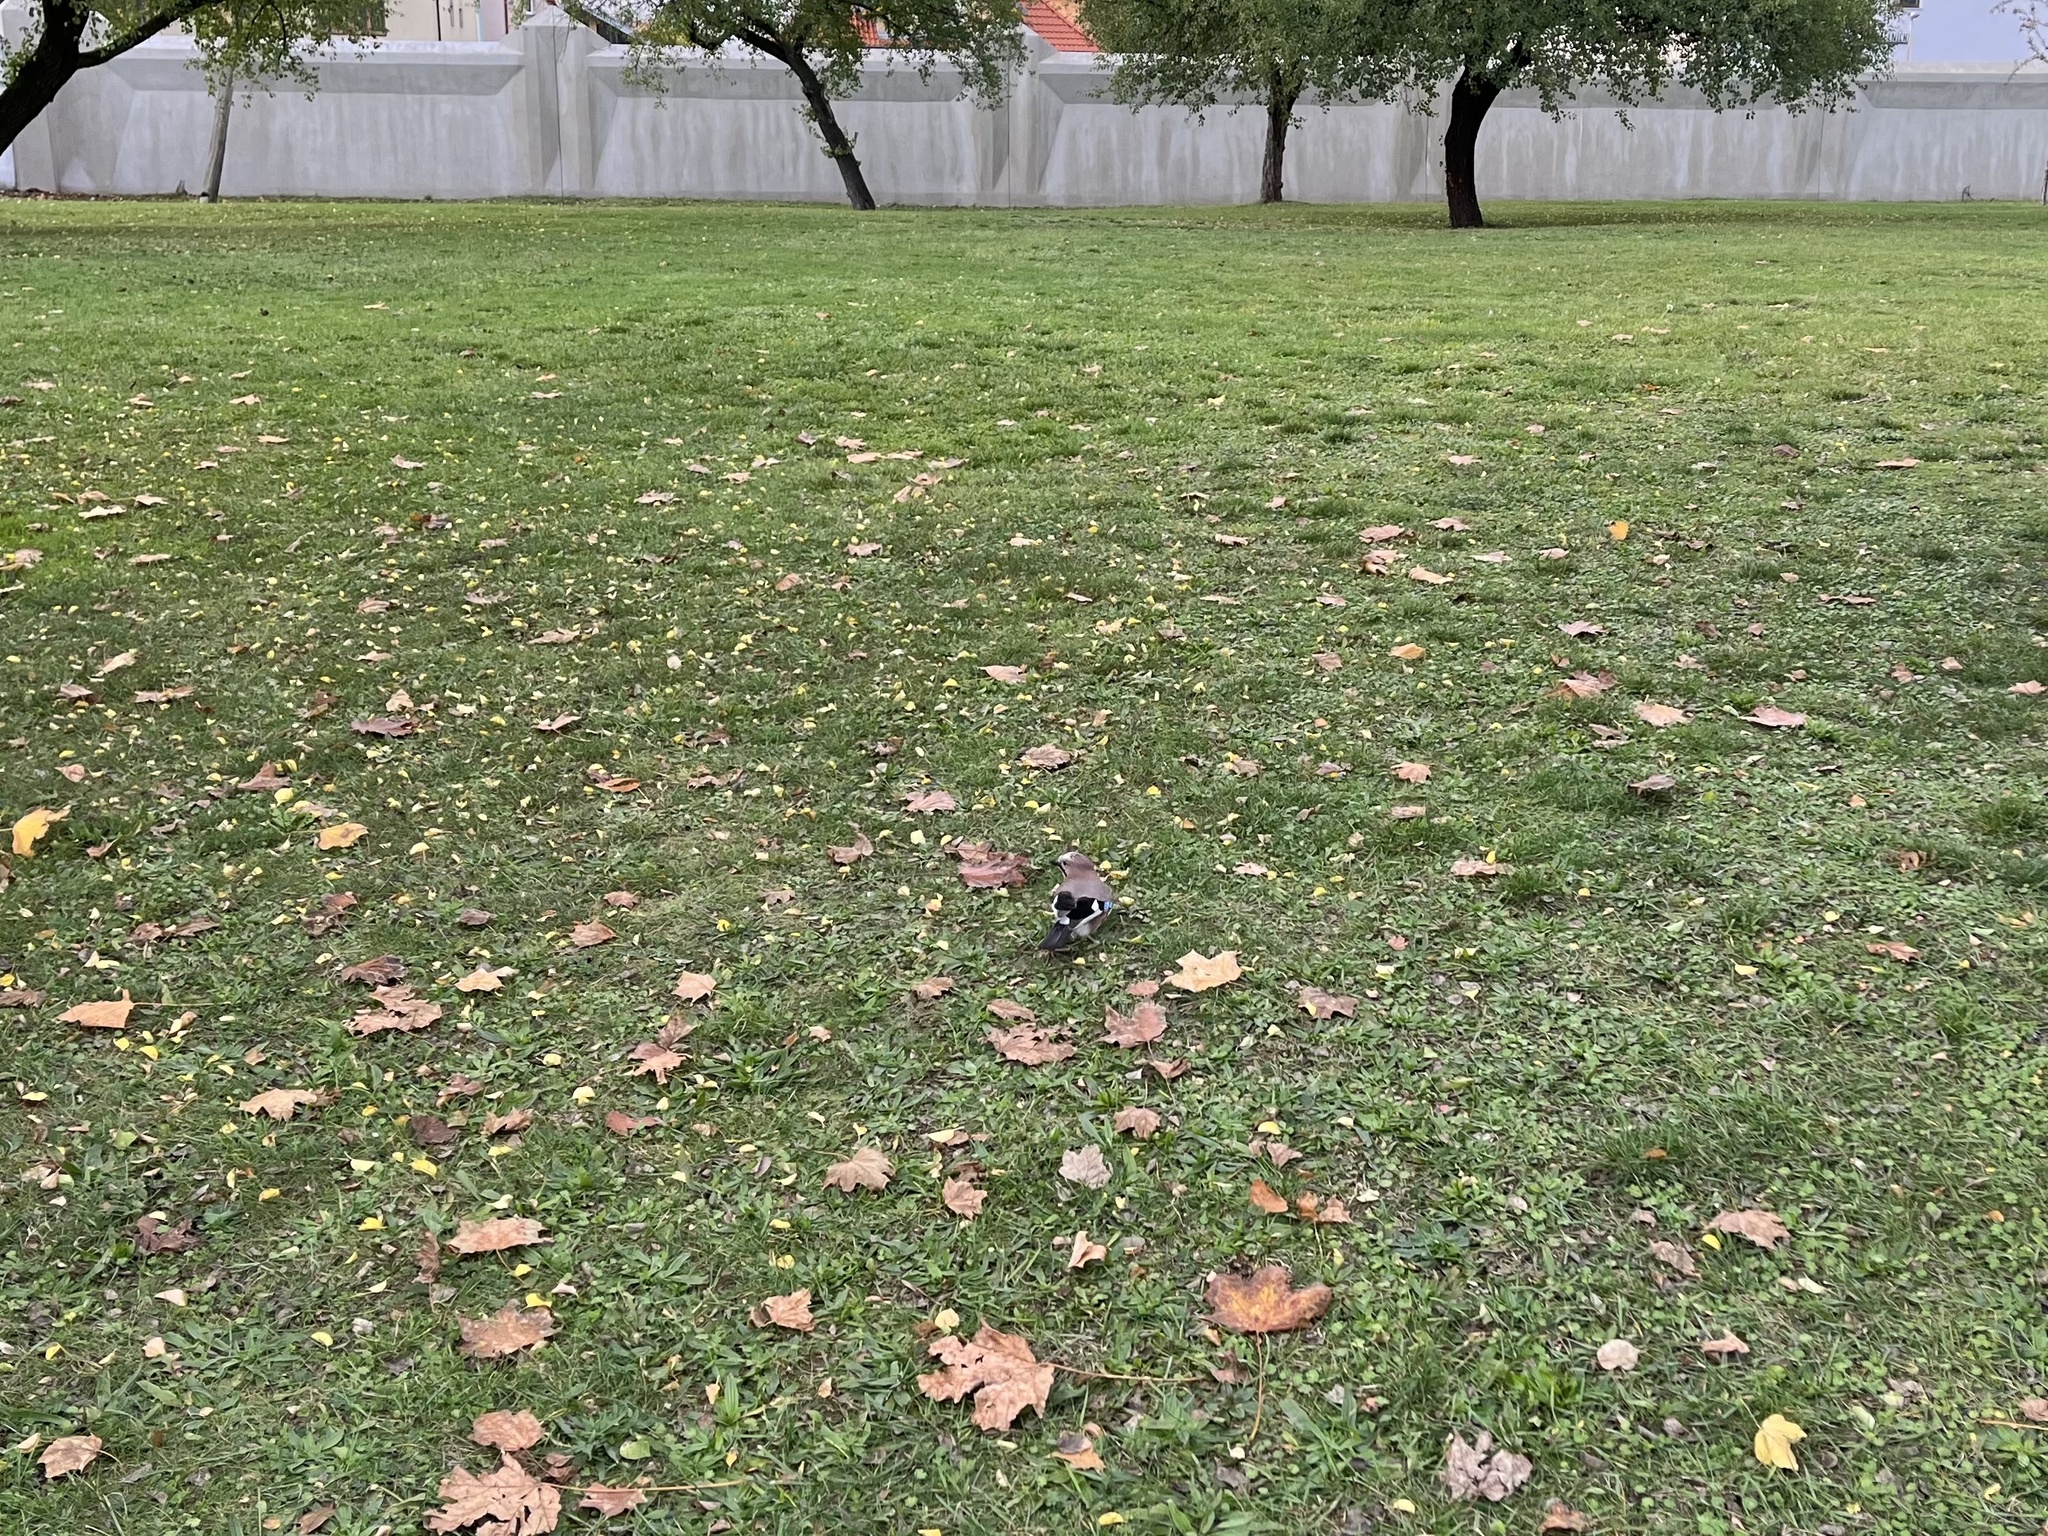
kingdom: Animalia
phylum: Chordata
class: Aves
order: Passeriformes
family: Corvidae
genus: Garrulus
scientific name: Garrulus glandarius
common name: Eurasian jay
